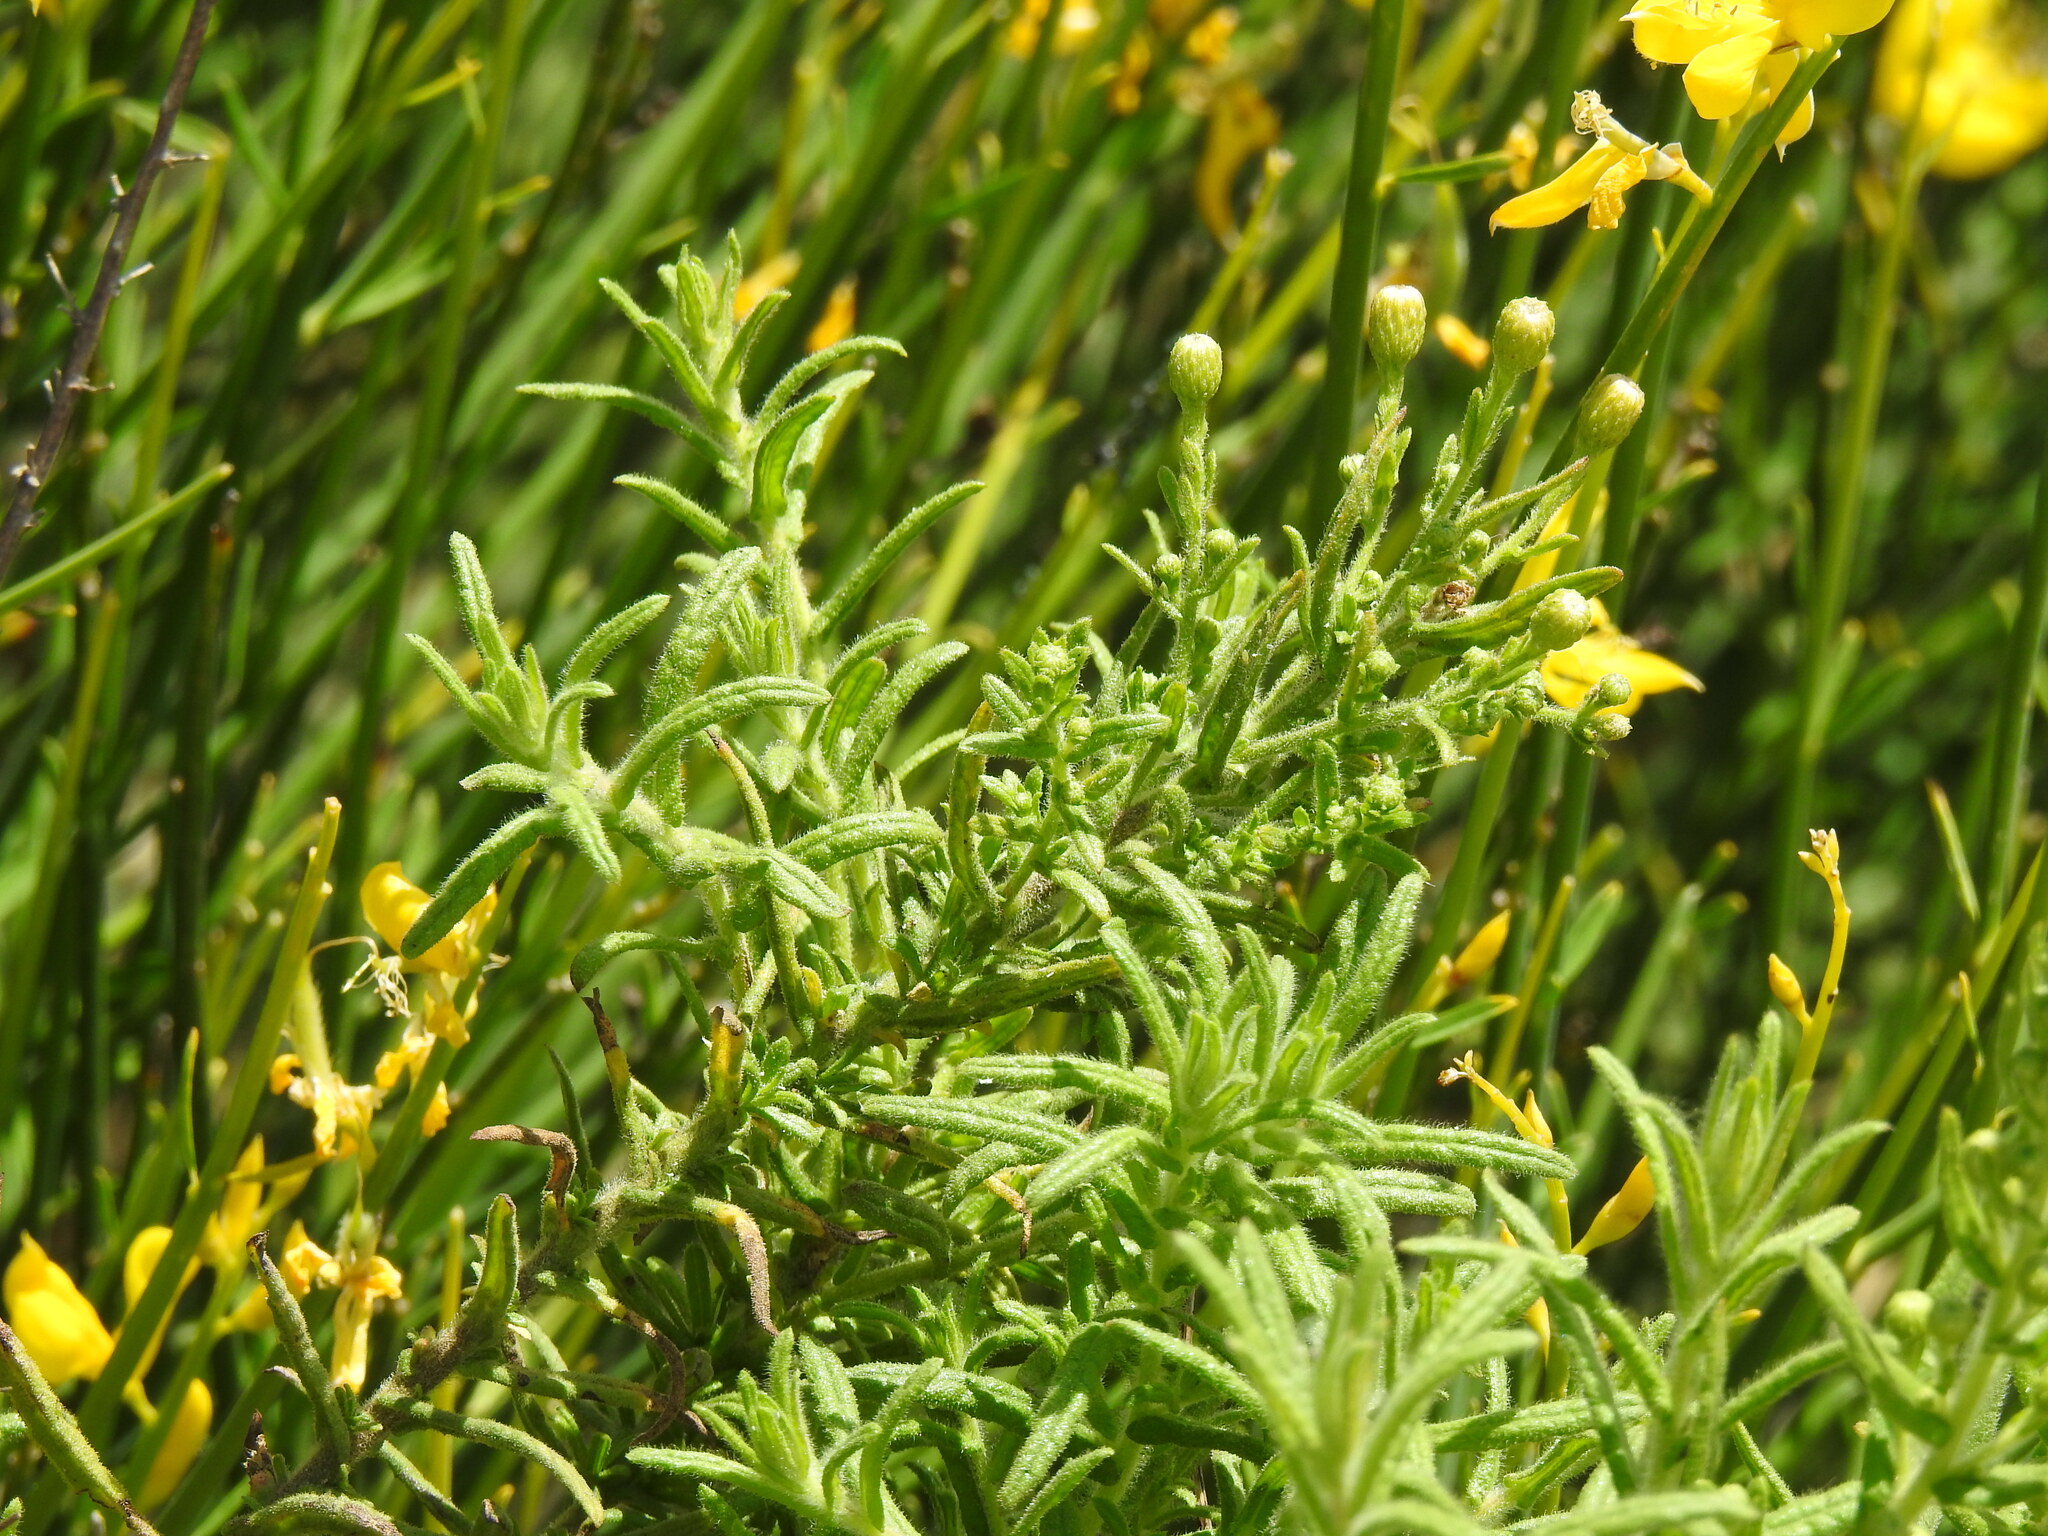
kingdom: Plantae
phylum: Tracheophyta
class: Magnoliopsida
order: Asterales
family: Asteraceae
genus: Dittrichia
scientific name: Dittrichia viscosa
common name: Woody fleabane
